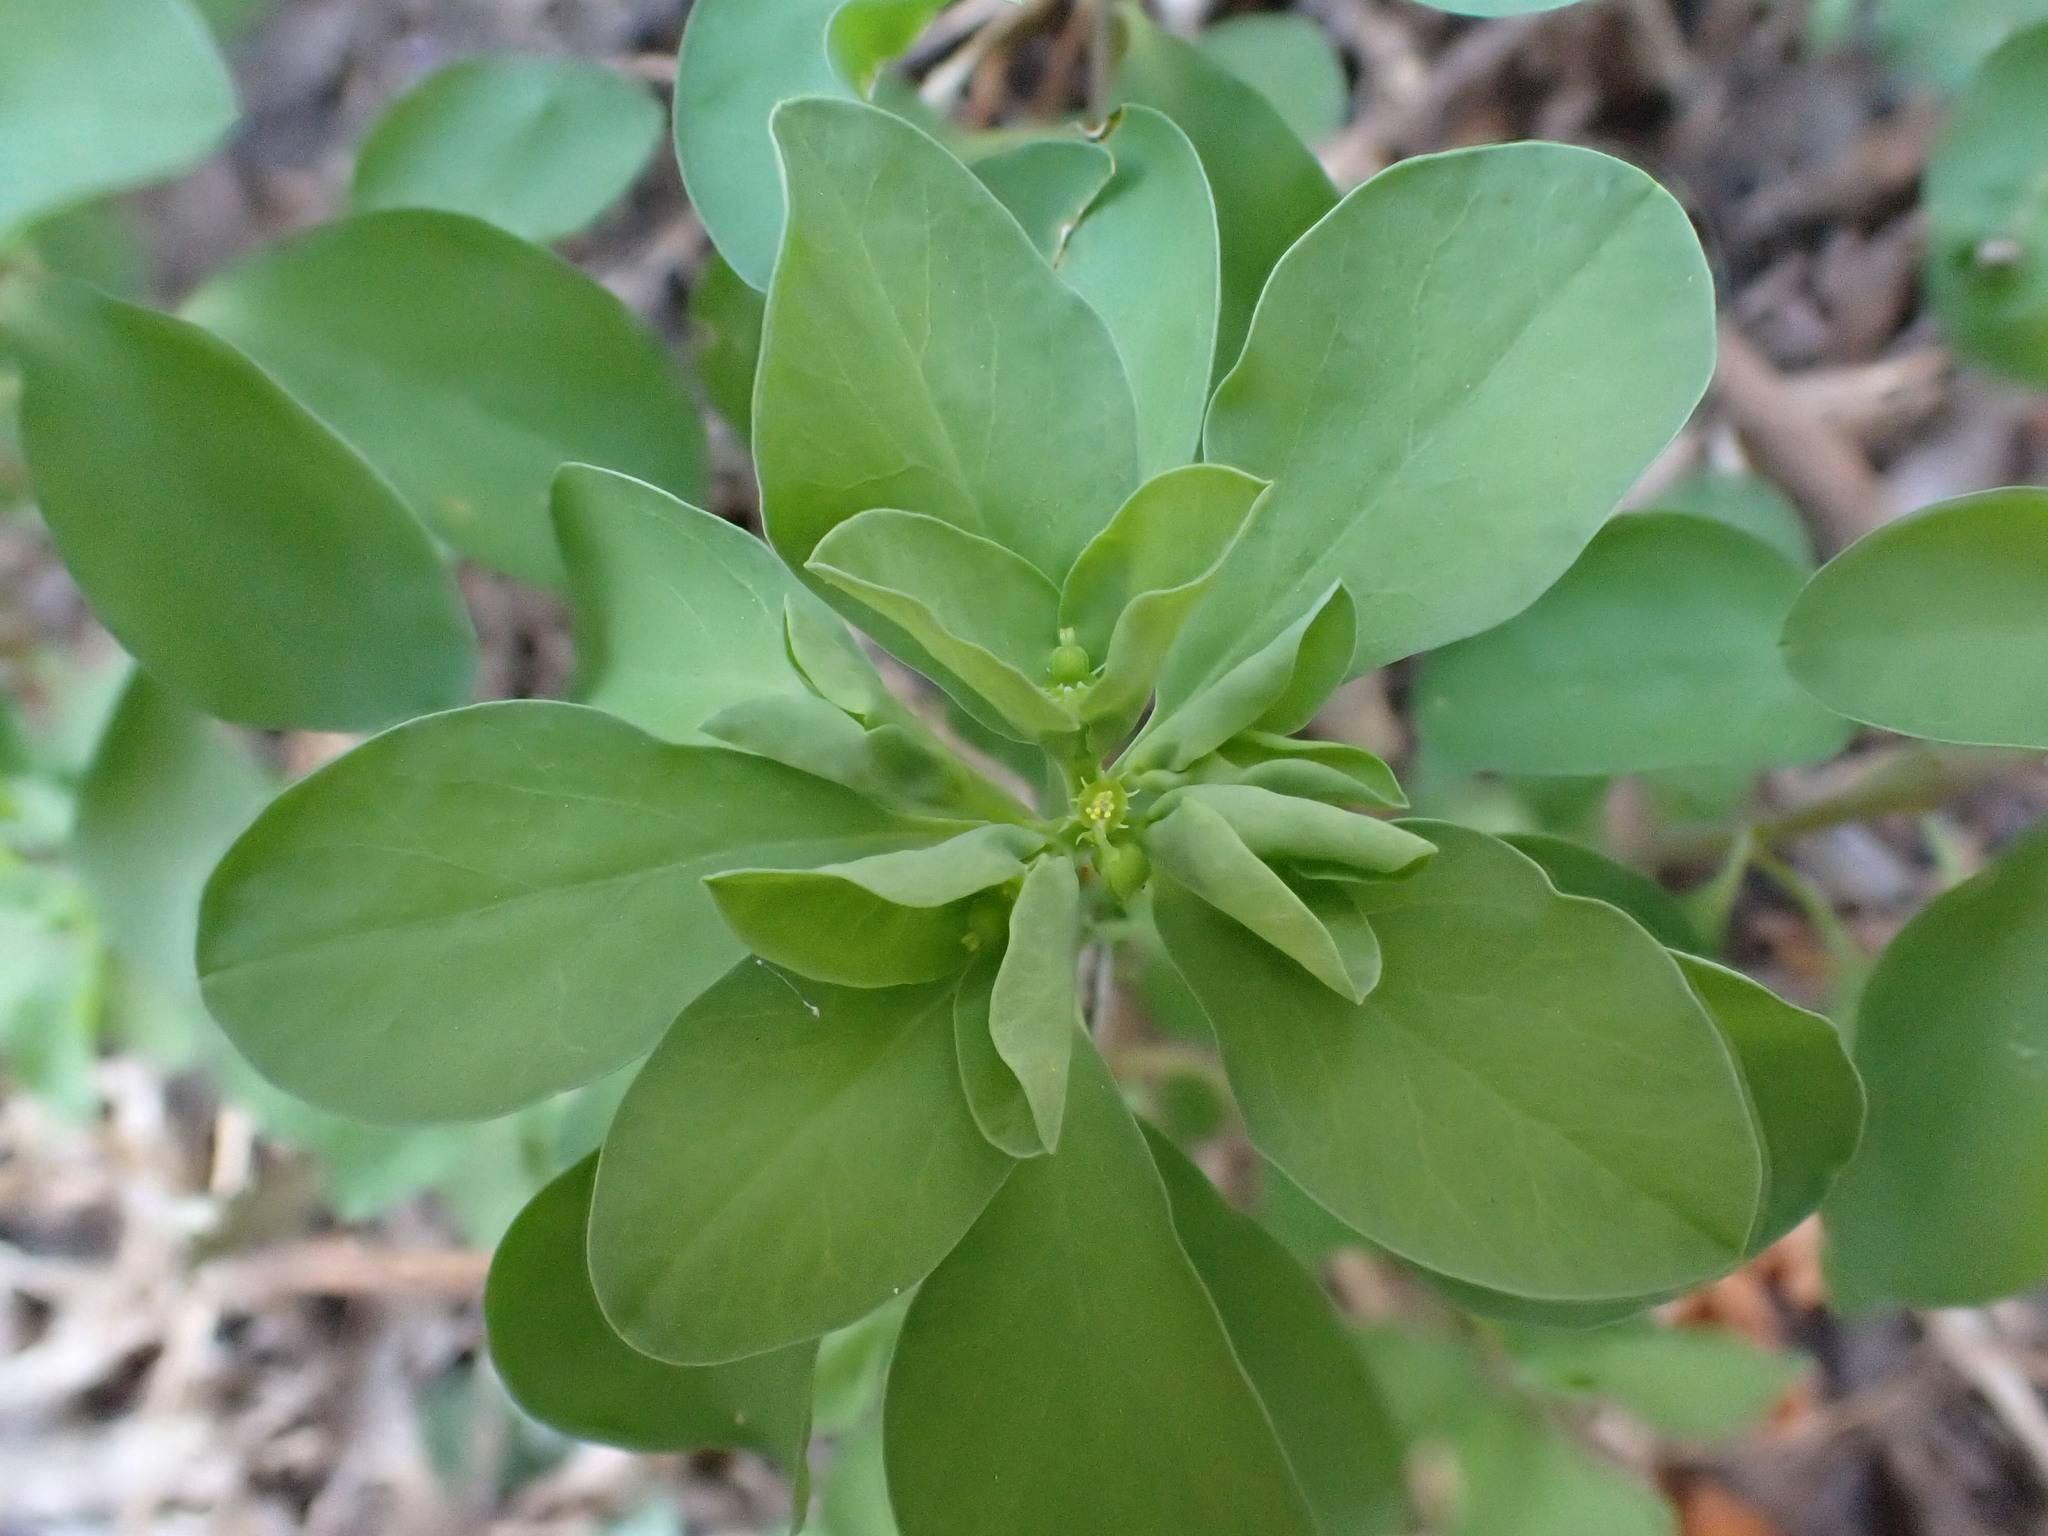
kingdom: Plantae
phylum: Tracheophyta
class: Magnoliopsida
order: Malpighiales
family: Euphorbiaceae
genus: Euphorbia
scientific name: Euphorbia peplus
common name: Petty spurge
